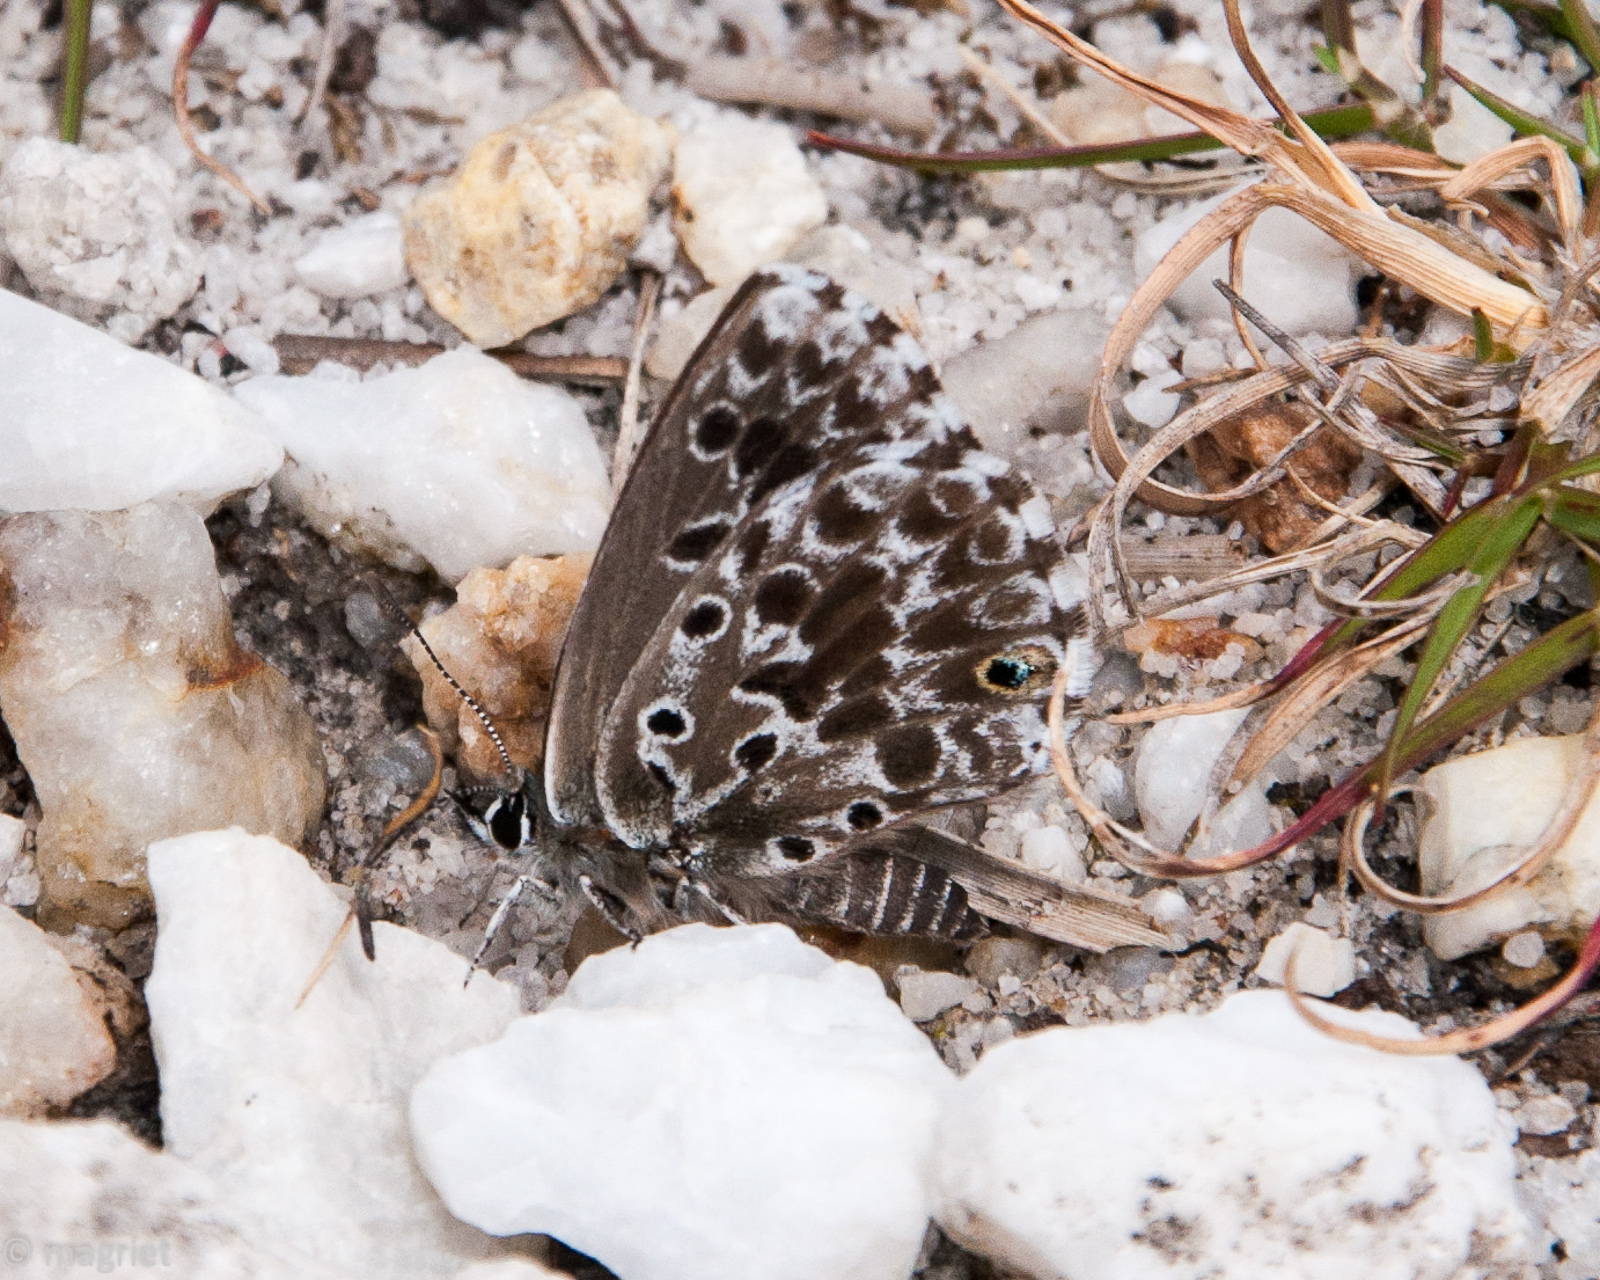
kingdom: Animalia
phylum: Arthropoda
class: Insecta
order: Lepidoptera
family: Lycaenidae
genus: Lepidochrysops
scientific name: Lepidochrysops methymna
